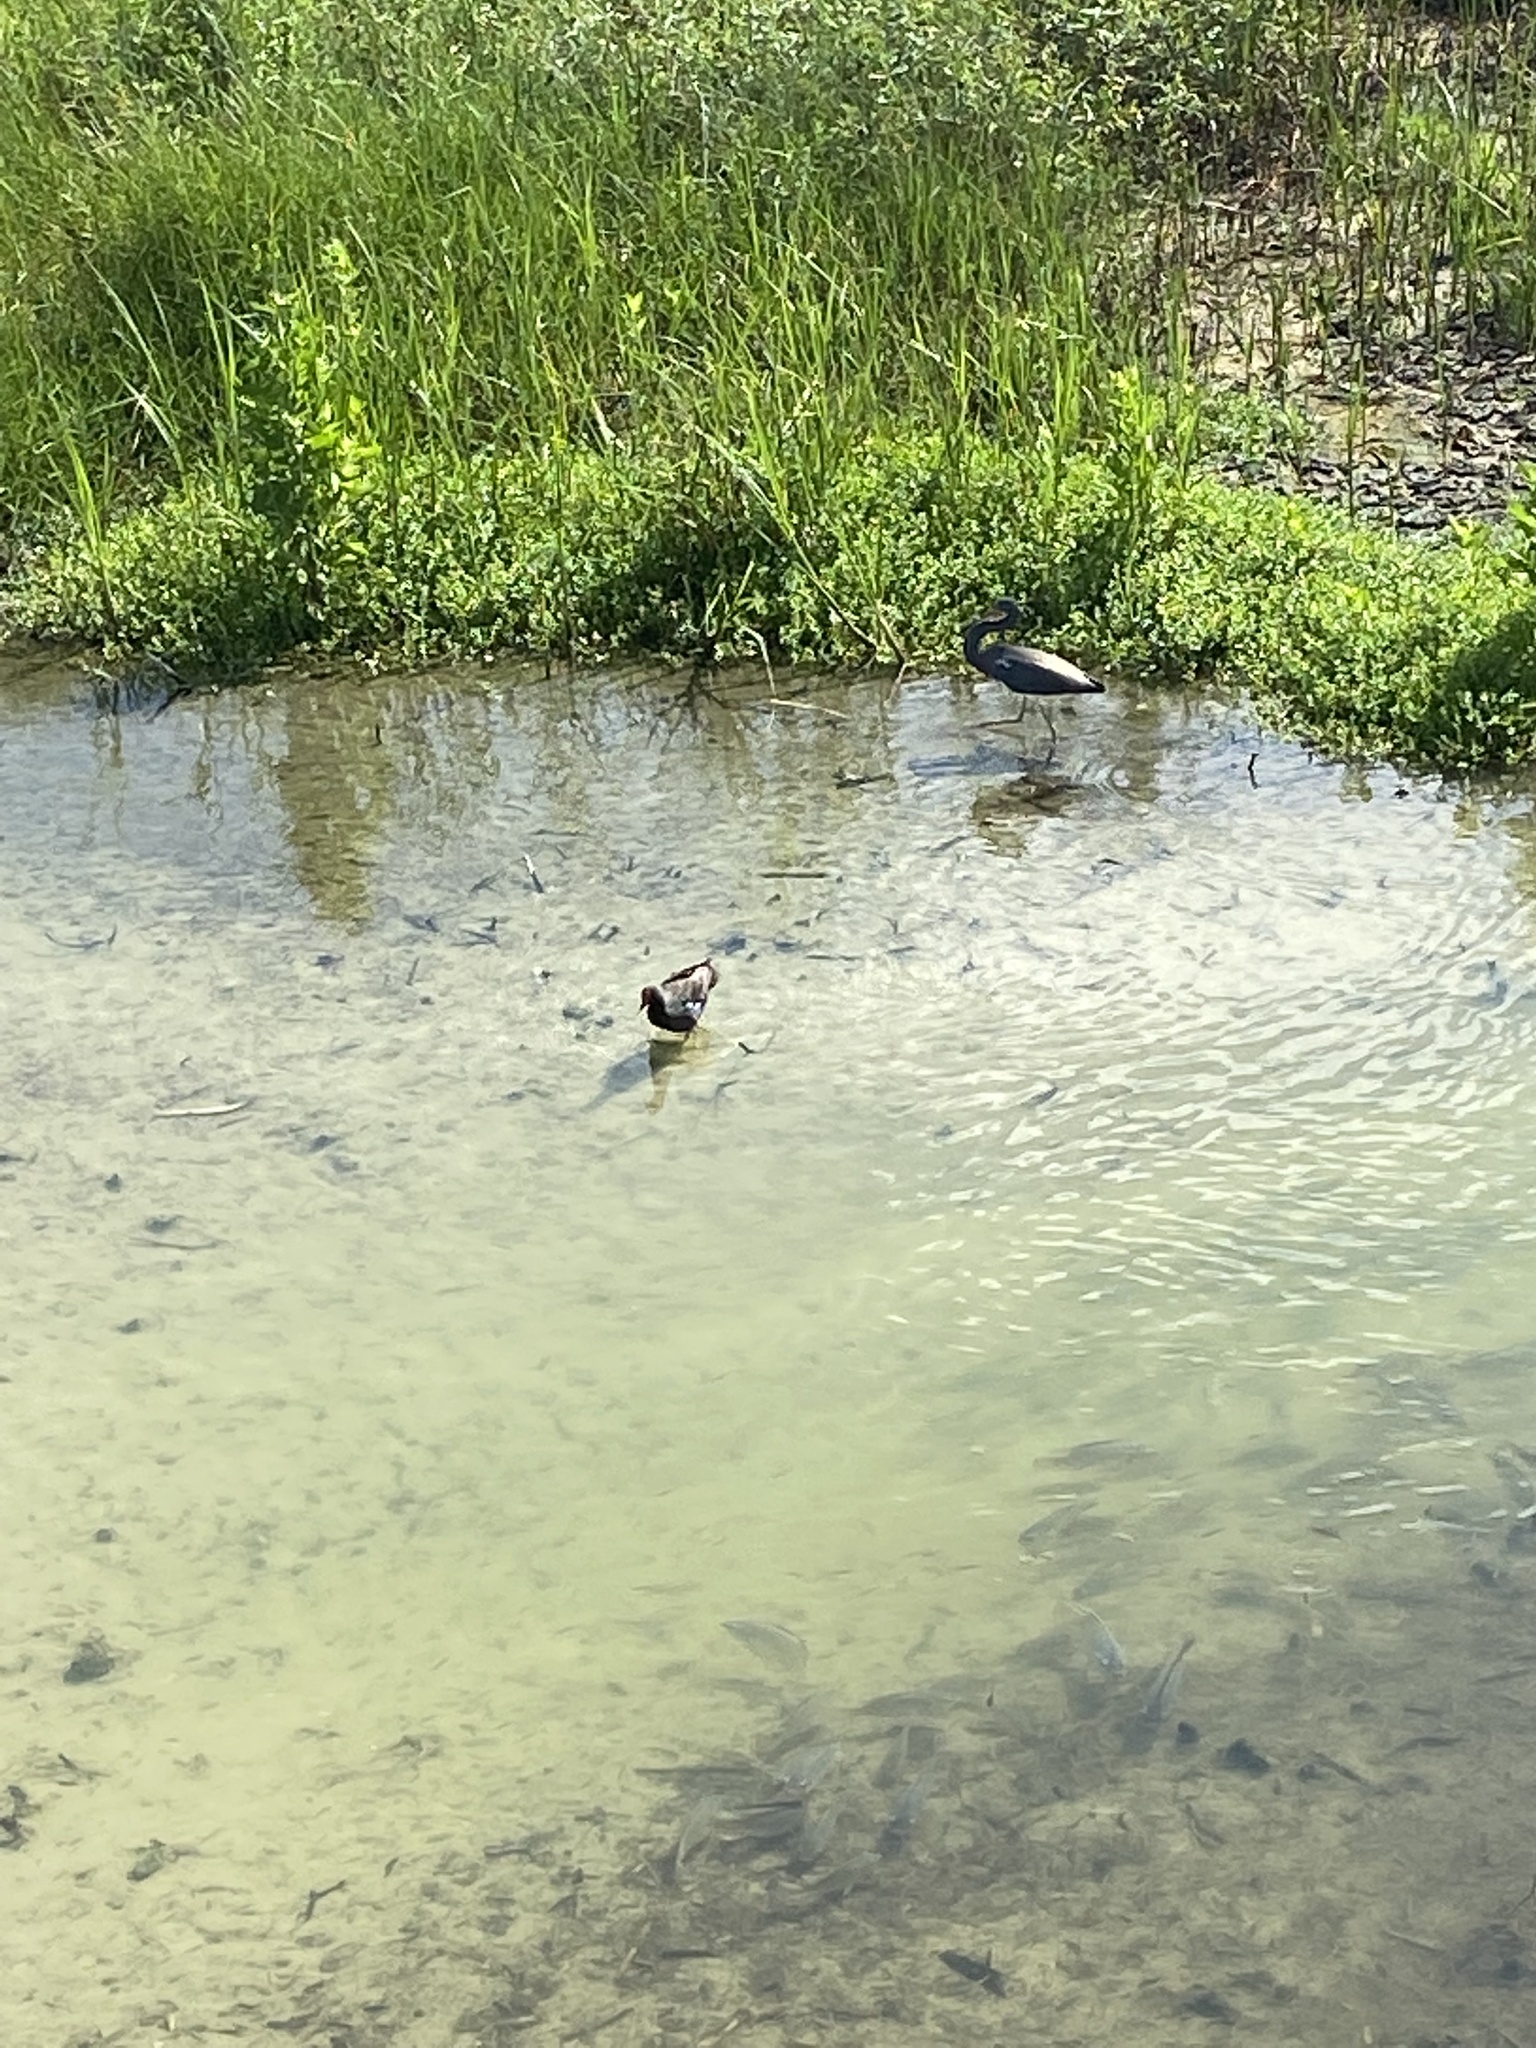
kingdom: Animalia
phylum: Chordata
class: Aves
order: Pelecaniformes
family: Ardeidae
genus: Egretta
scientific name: Egretta tricolor
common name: Tricolored heron
